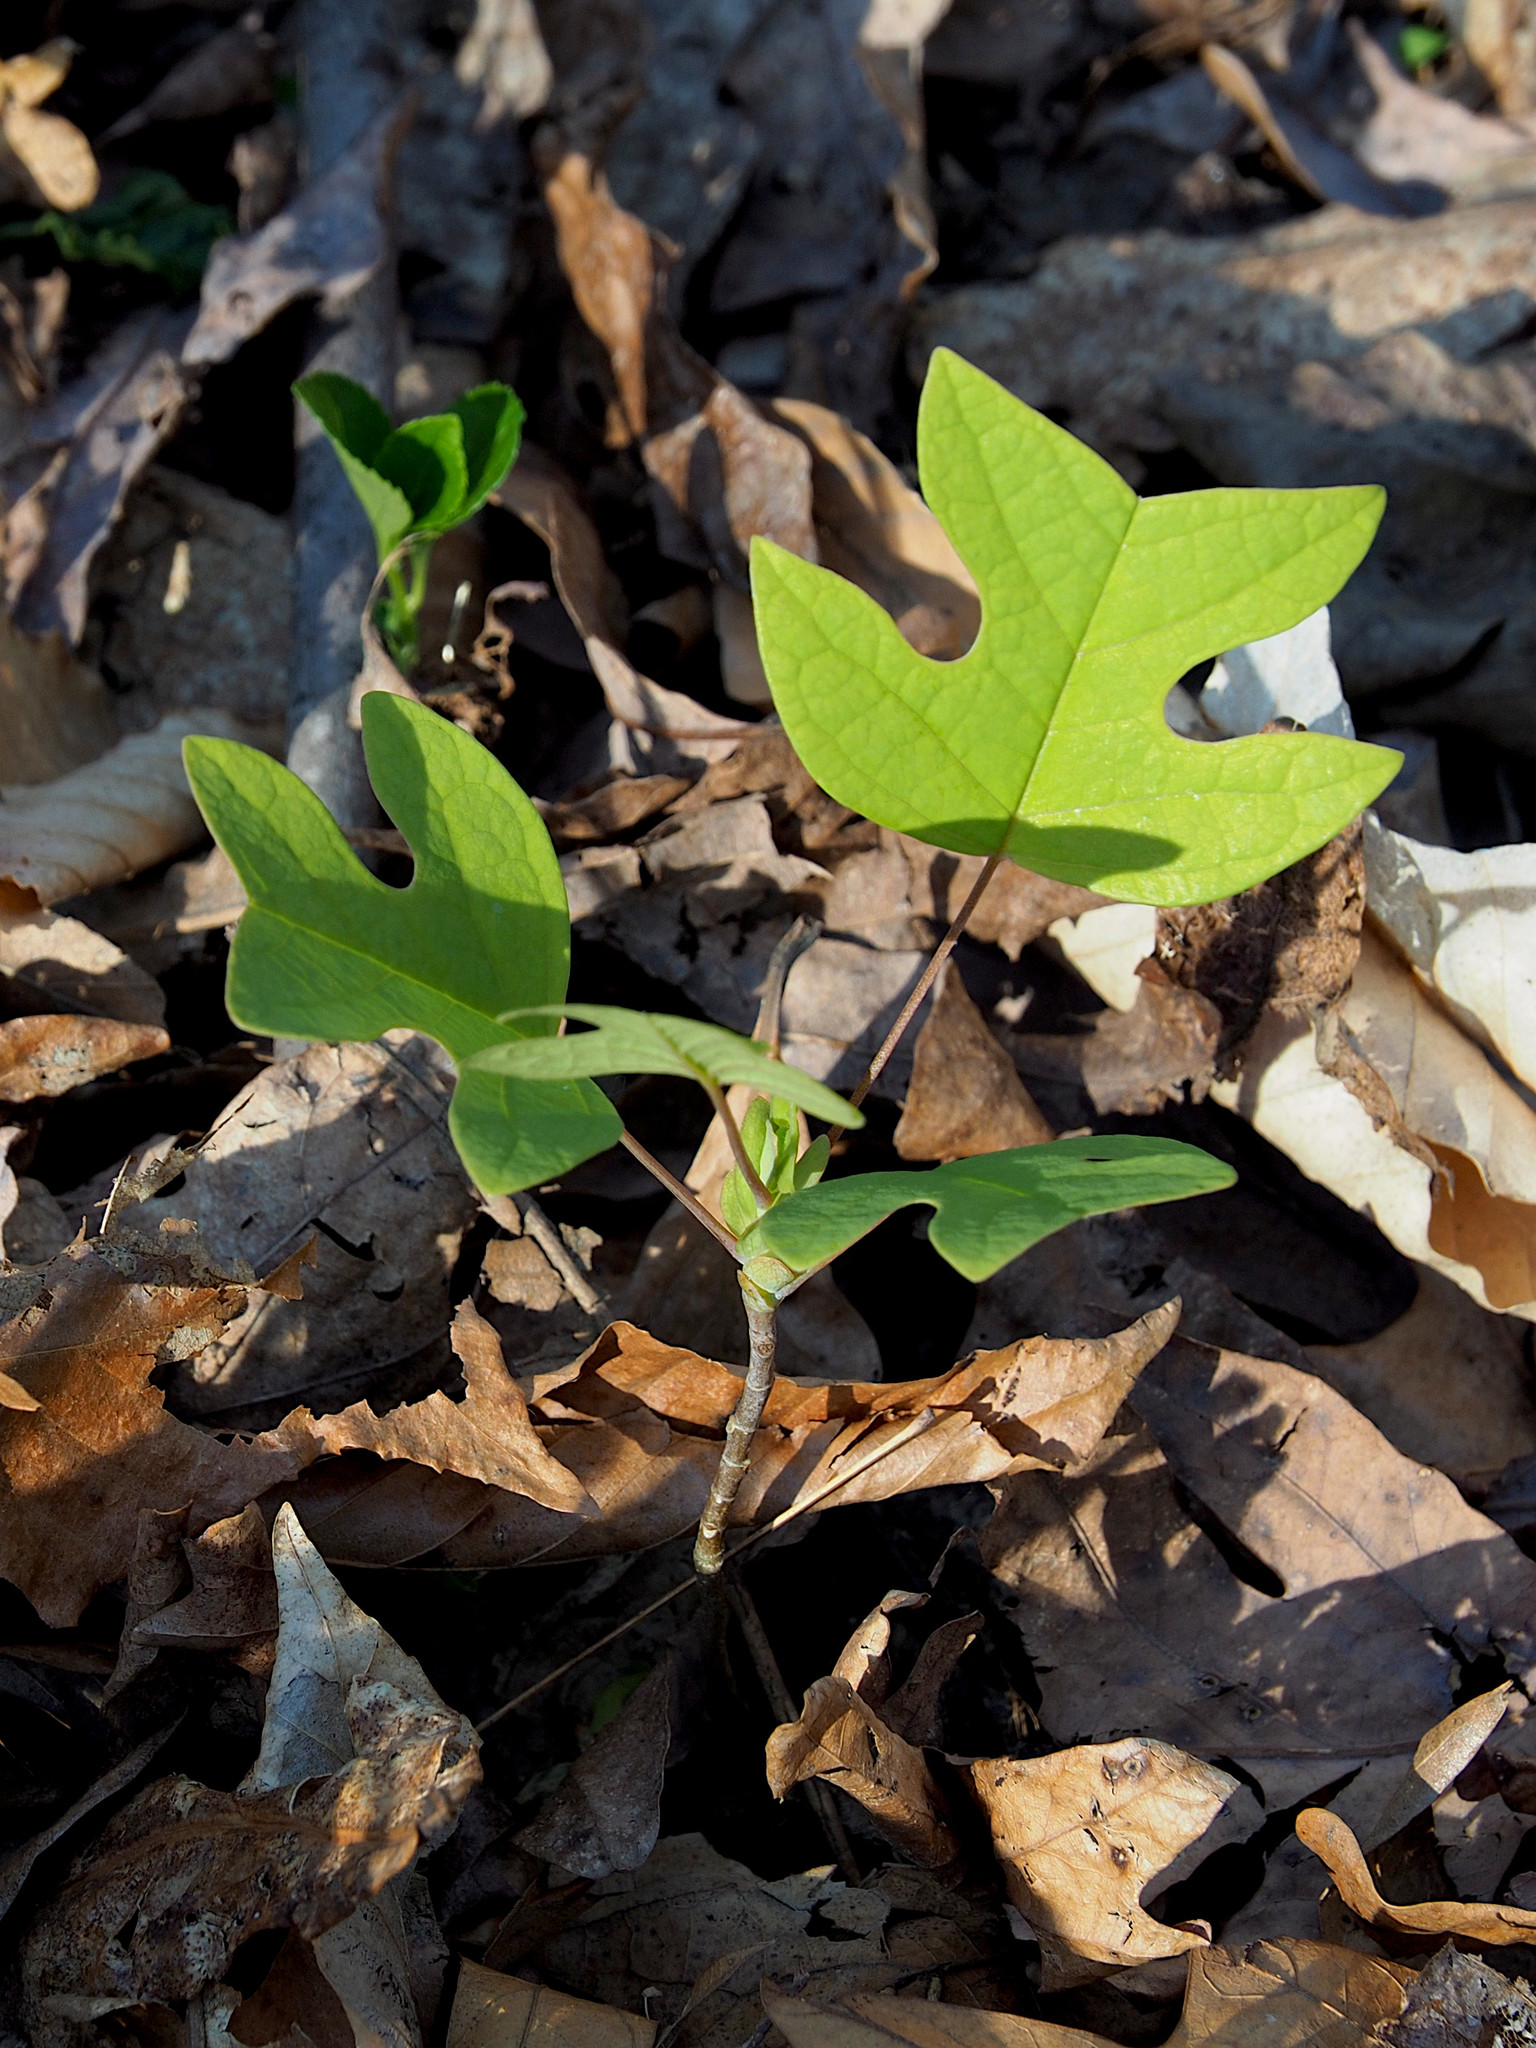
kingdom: Plantae
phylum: Tracheophyta
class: Magnoliopsida
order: Magnoliales
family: Magnoliaceae
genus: Liriodendron
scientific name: Liriodendron tulipifera
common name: Tulip tree
